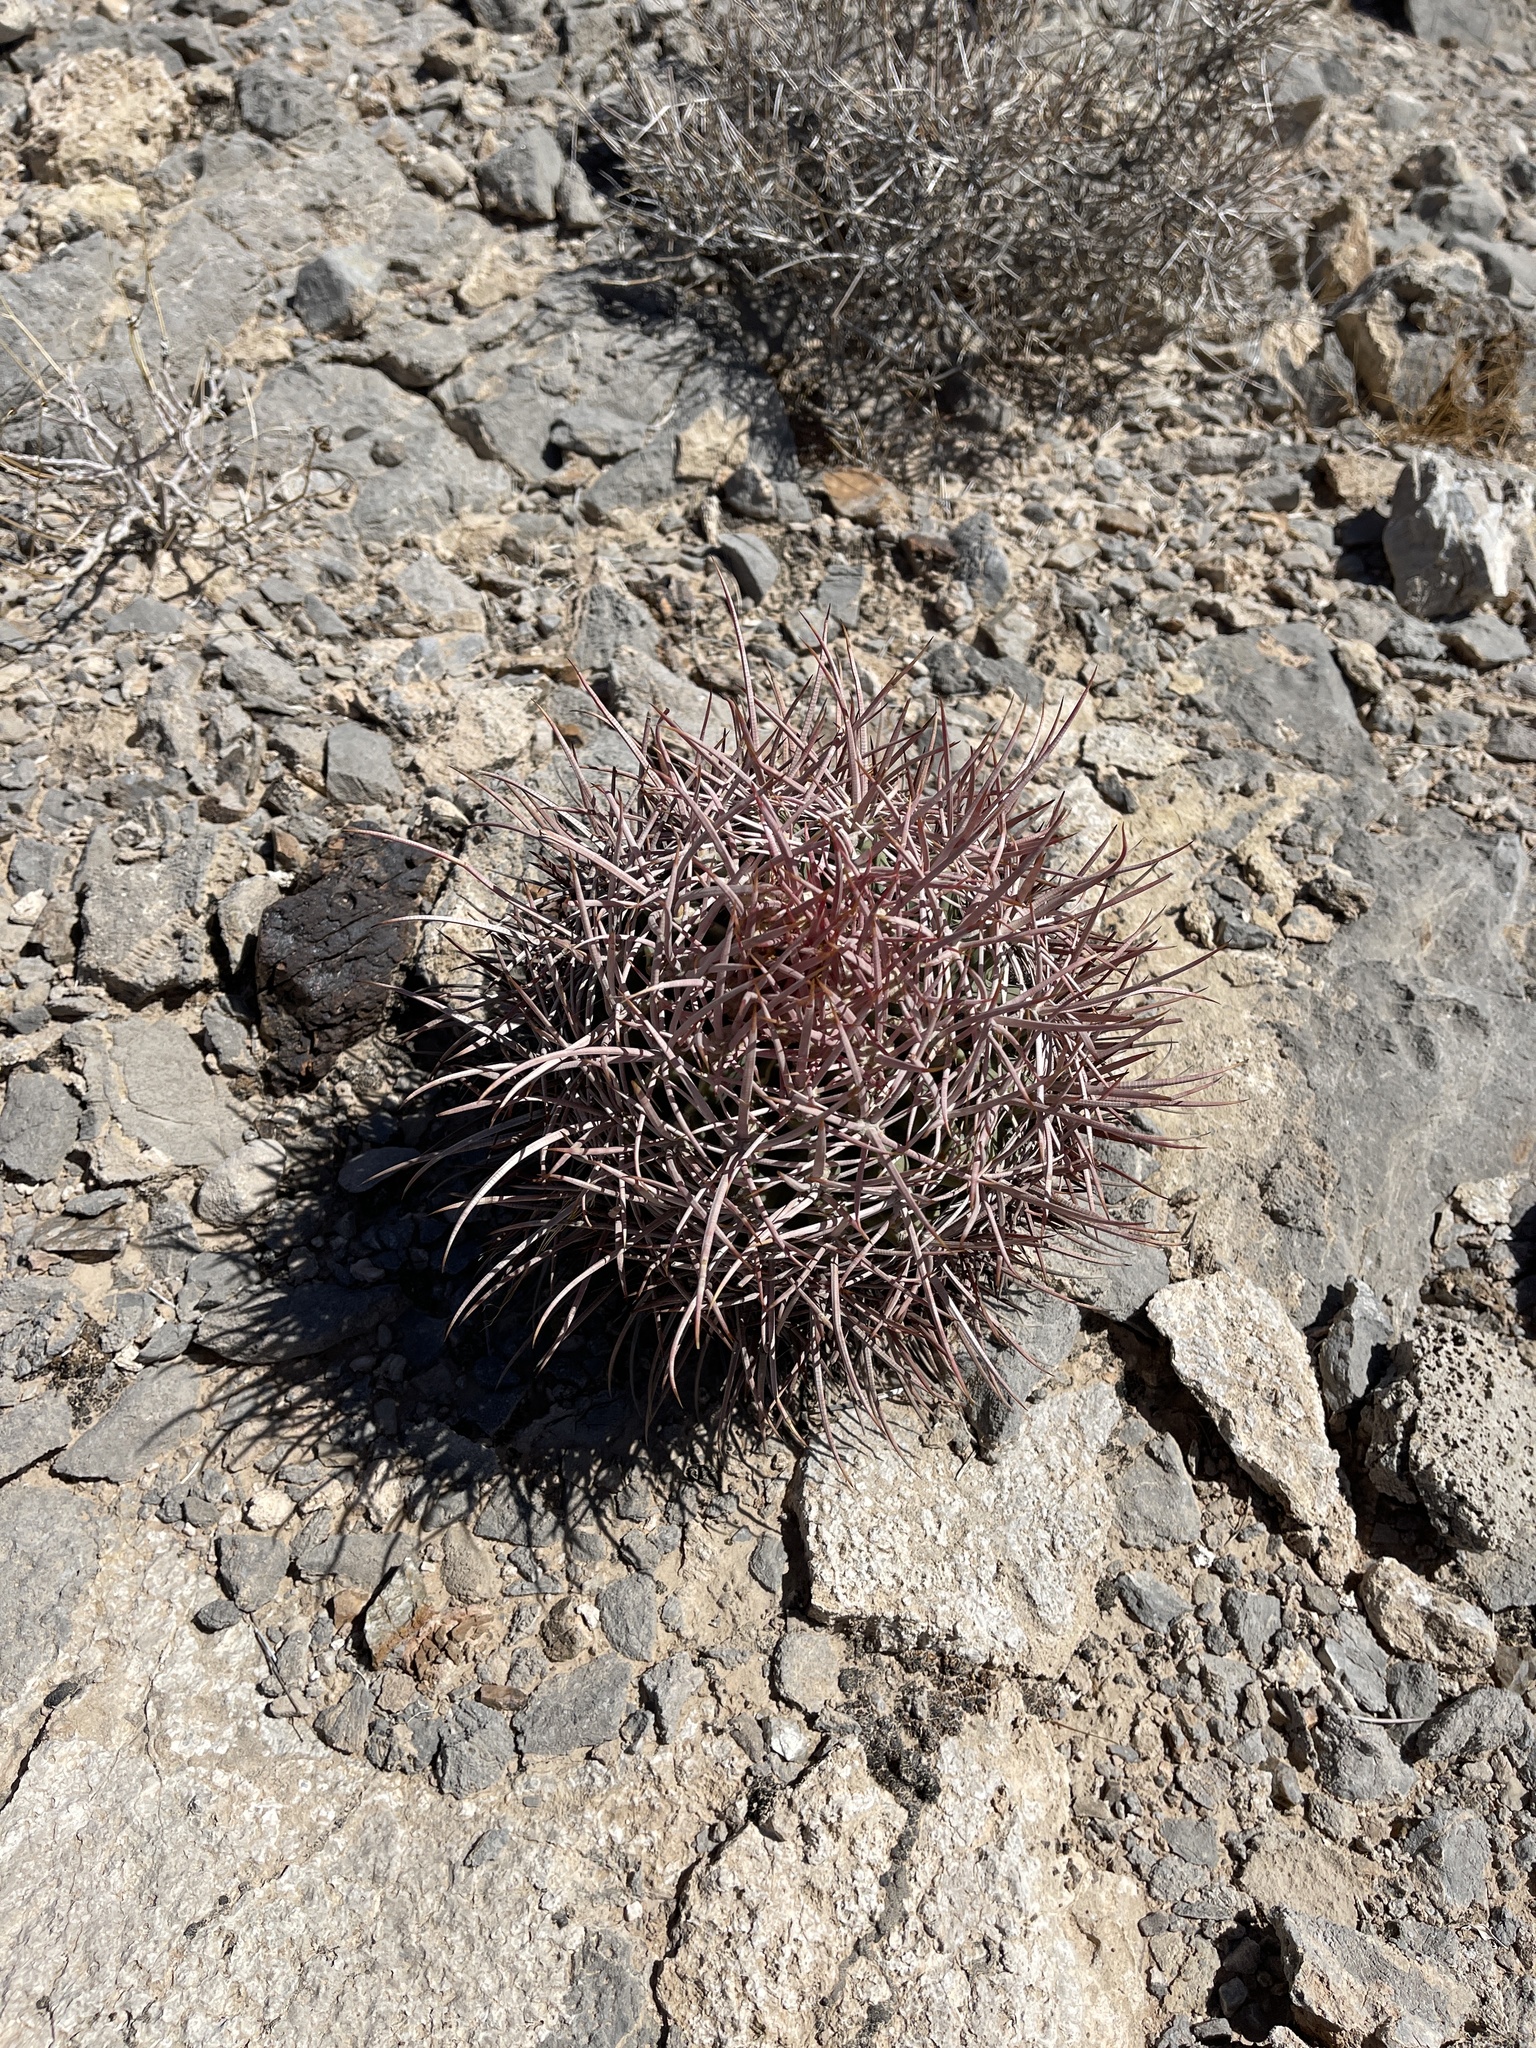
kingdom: Plantae
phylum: Tracheophyta
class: Magnoliopsida
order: Caryophyllales
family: Cactaceae
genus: Echinocactus
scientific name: Echinocactus polycephalus
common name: Cottontop cactus
